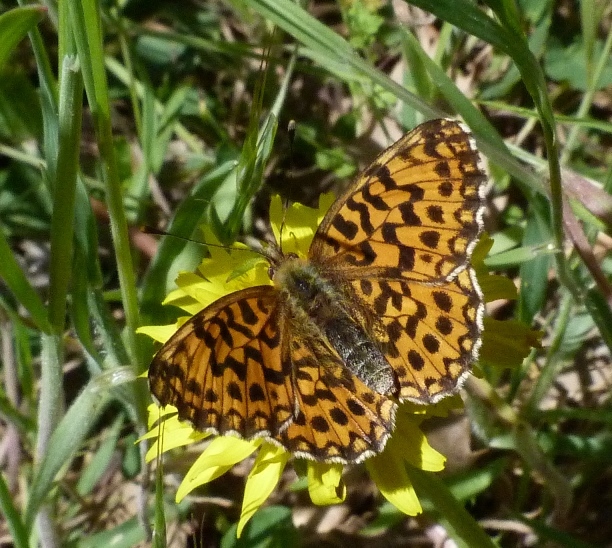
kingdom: Animalia
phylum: Arthropoda
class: Insecta
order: Lepidoptera
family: Nymphalidae
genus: Boloria
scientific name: Boloria dia
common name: Weaver's fritillary
